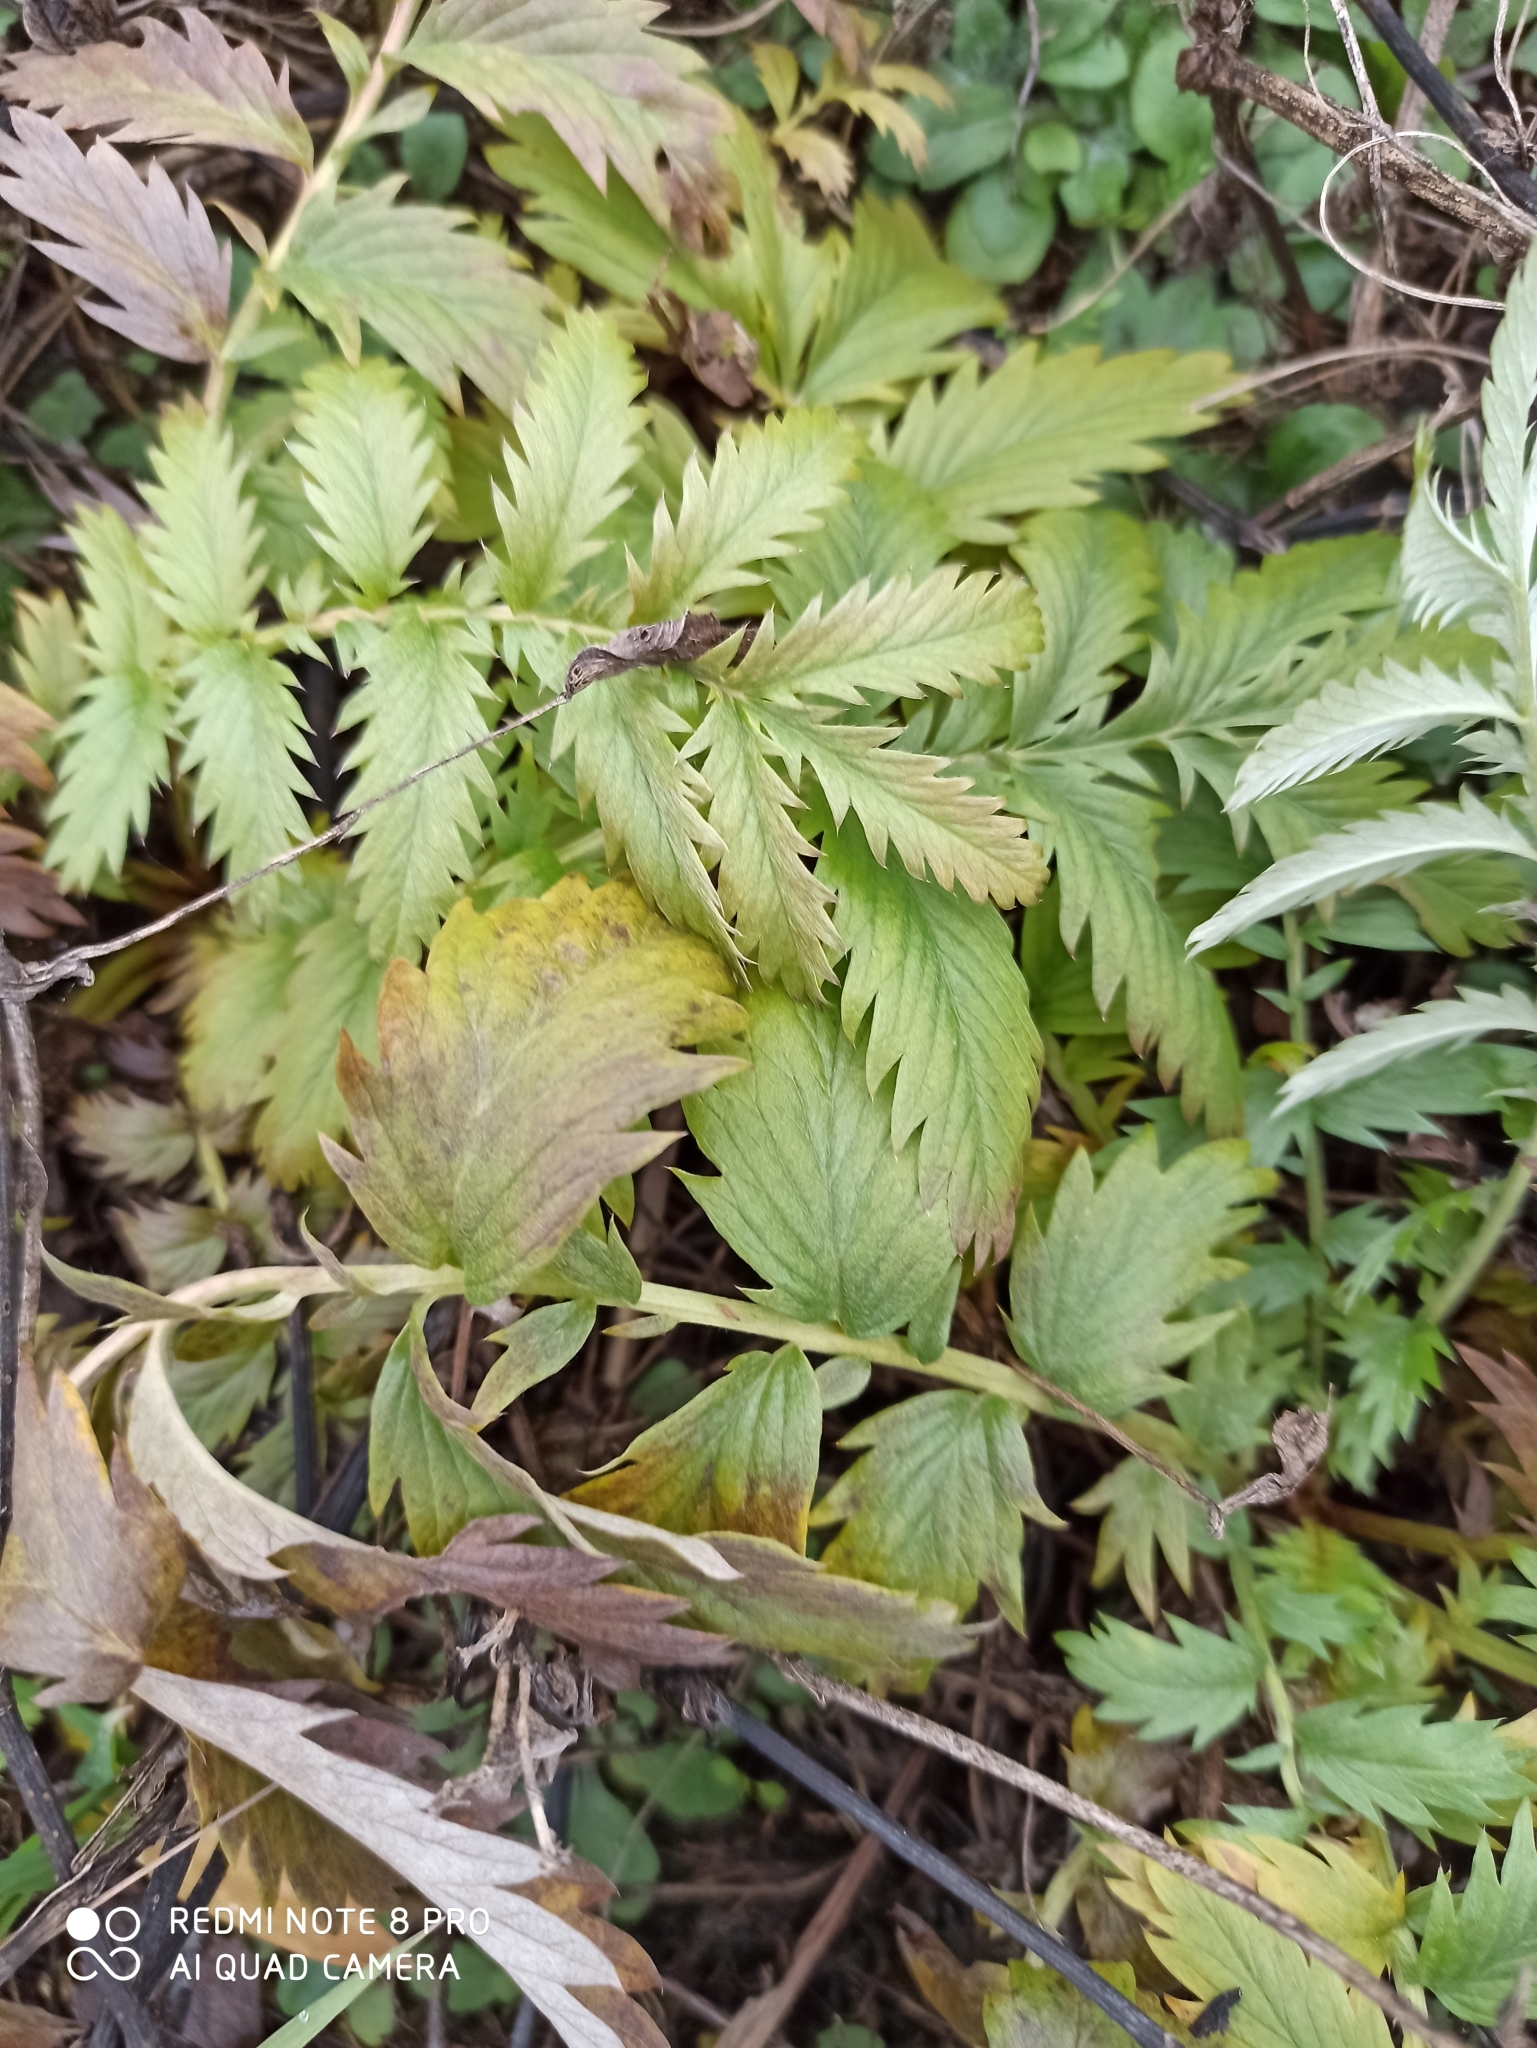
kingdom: Plantae
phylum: Tracheophyta
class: Magnoliopsida
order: Rosales
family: Rosaceae
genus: Argentina
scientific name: Argentina anserina
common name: Common silverweed
